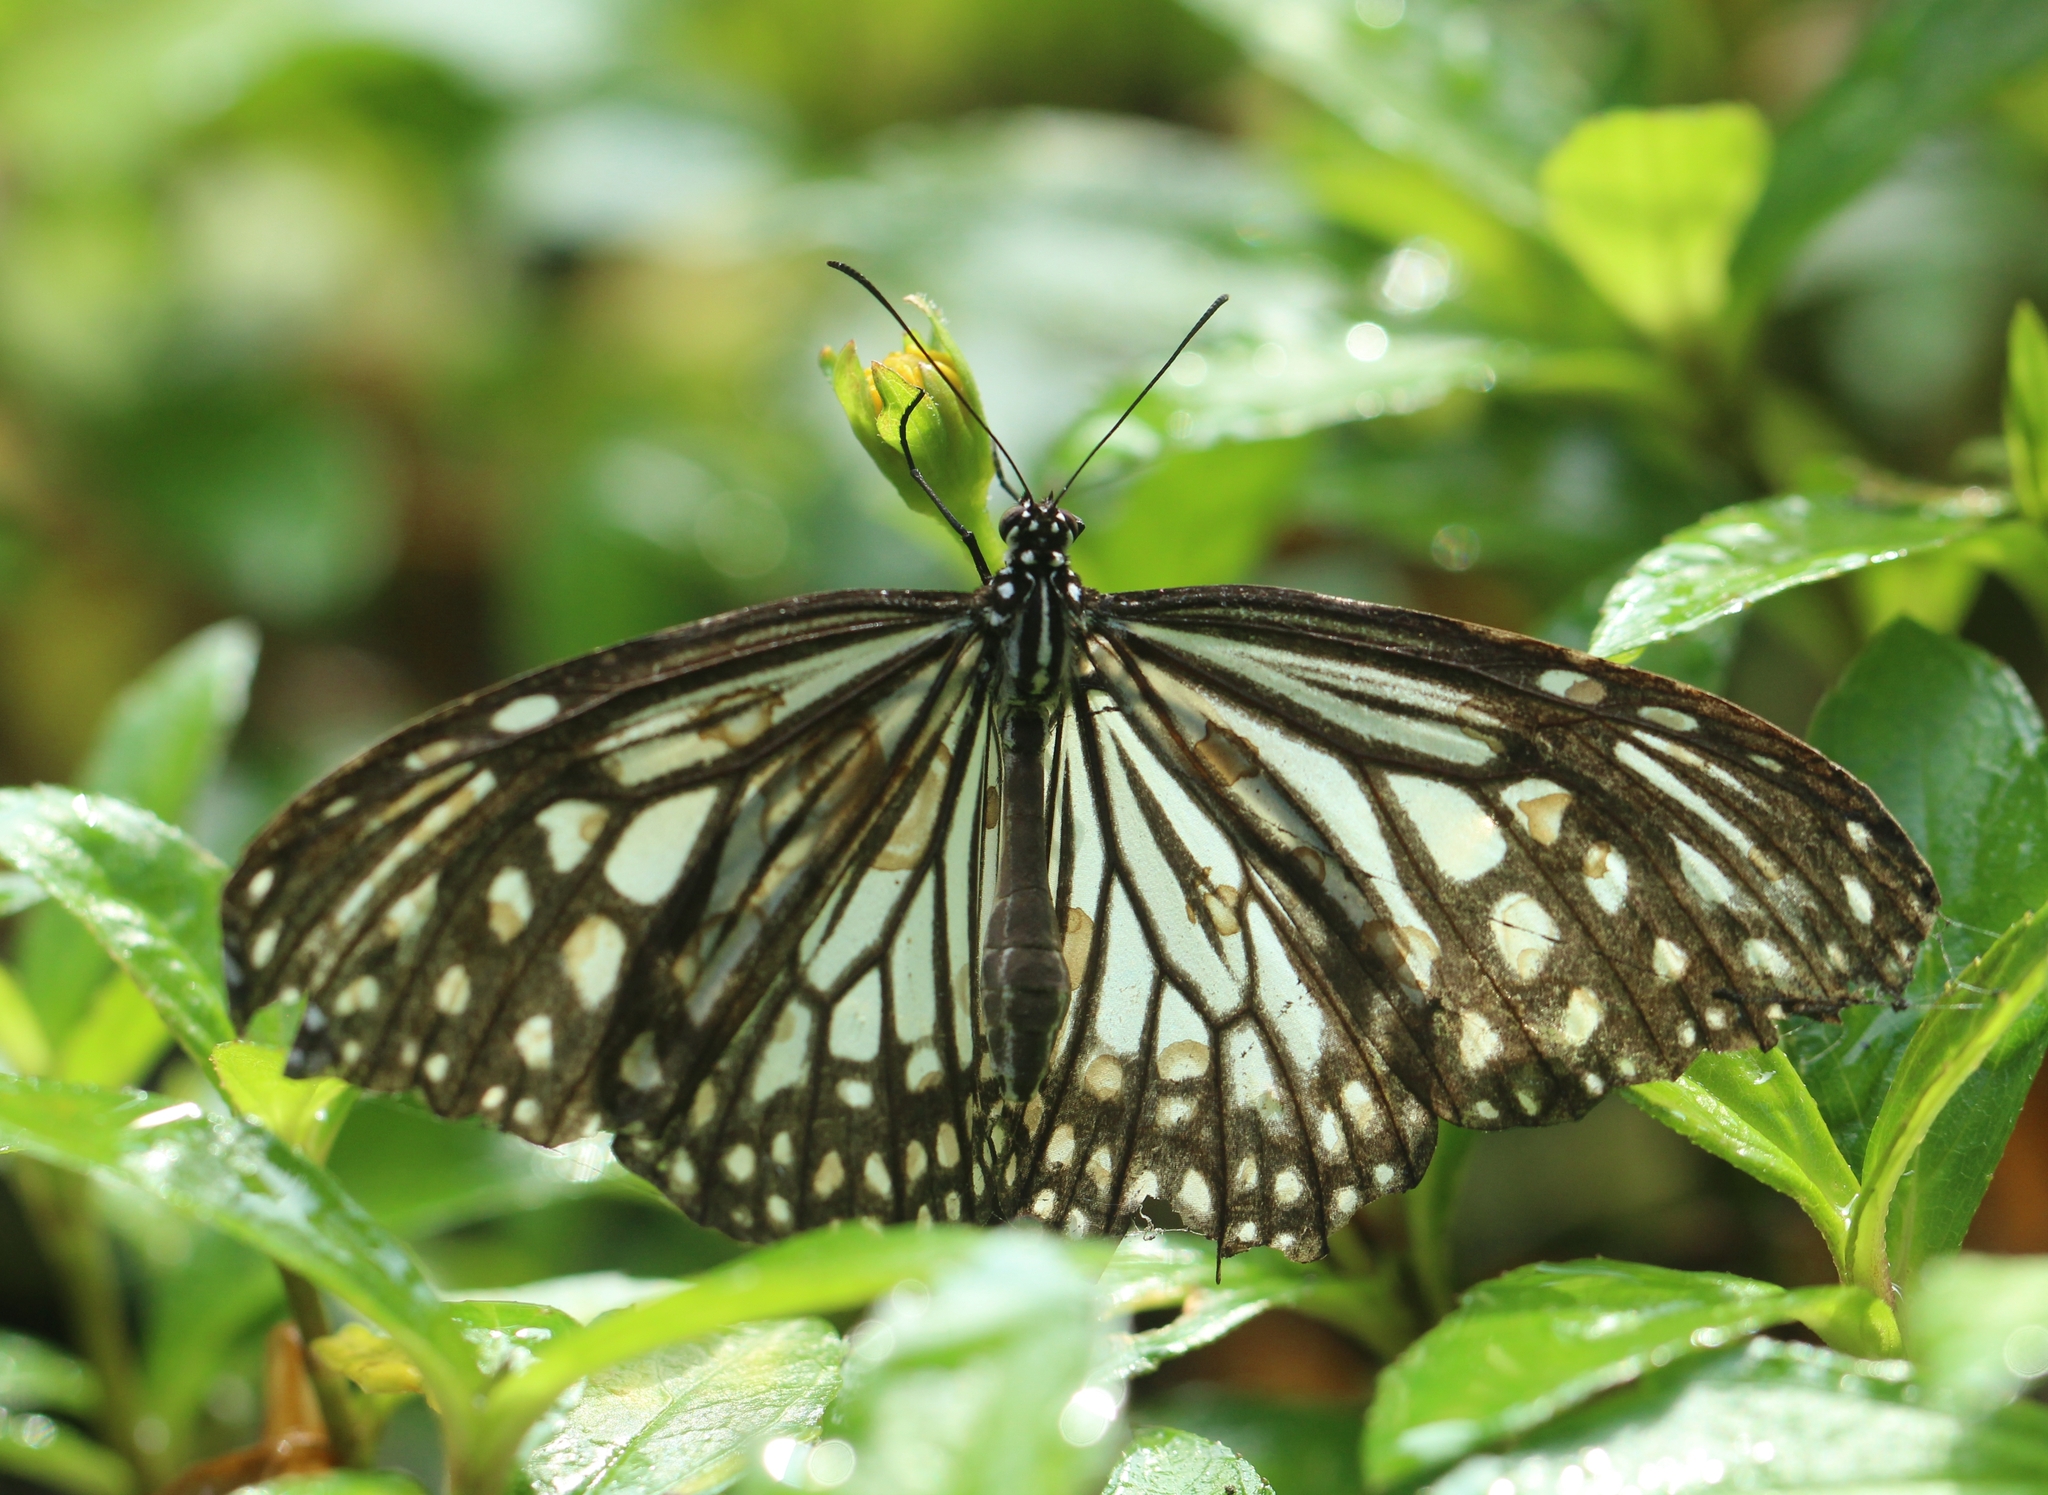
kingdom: Animalia
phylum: Arthropoda
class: Insecta
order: Lepidoptera
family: Nymphalidae
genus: Parantica
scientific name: Parantica aglea
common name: Glassy tiger
